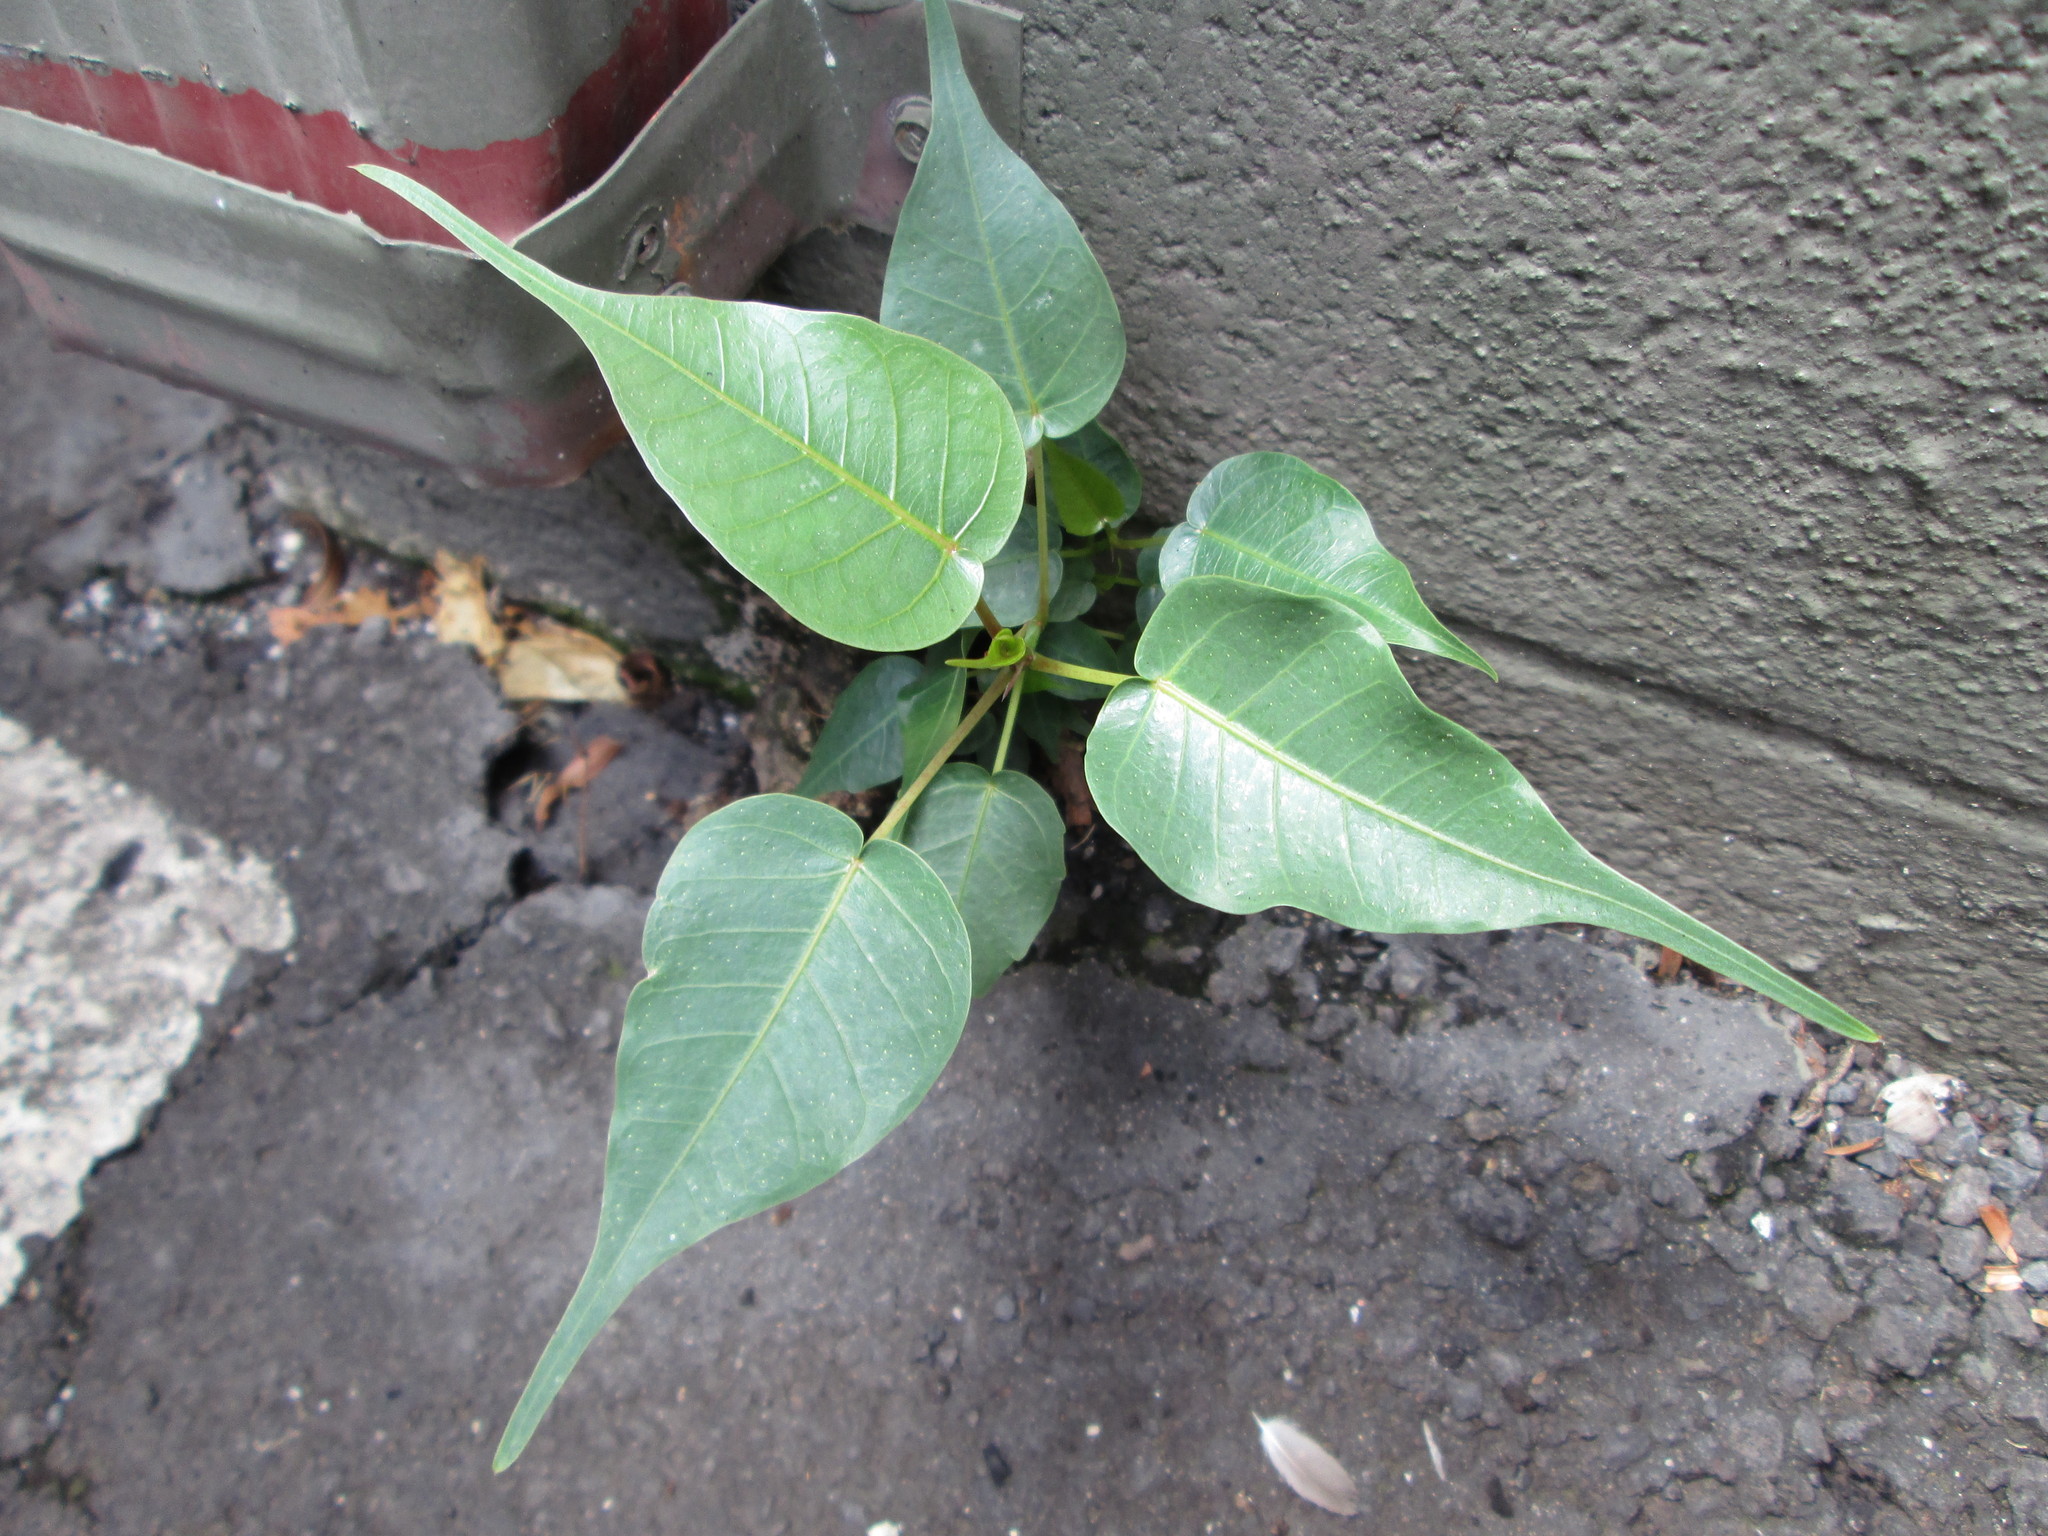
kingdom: Plantae
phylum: Tracheophyta
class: Magnoliopsida
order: Rosales
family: Moraceae
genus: Ficus
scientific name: Ficus religiosa
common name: Bodhi tree
